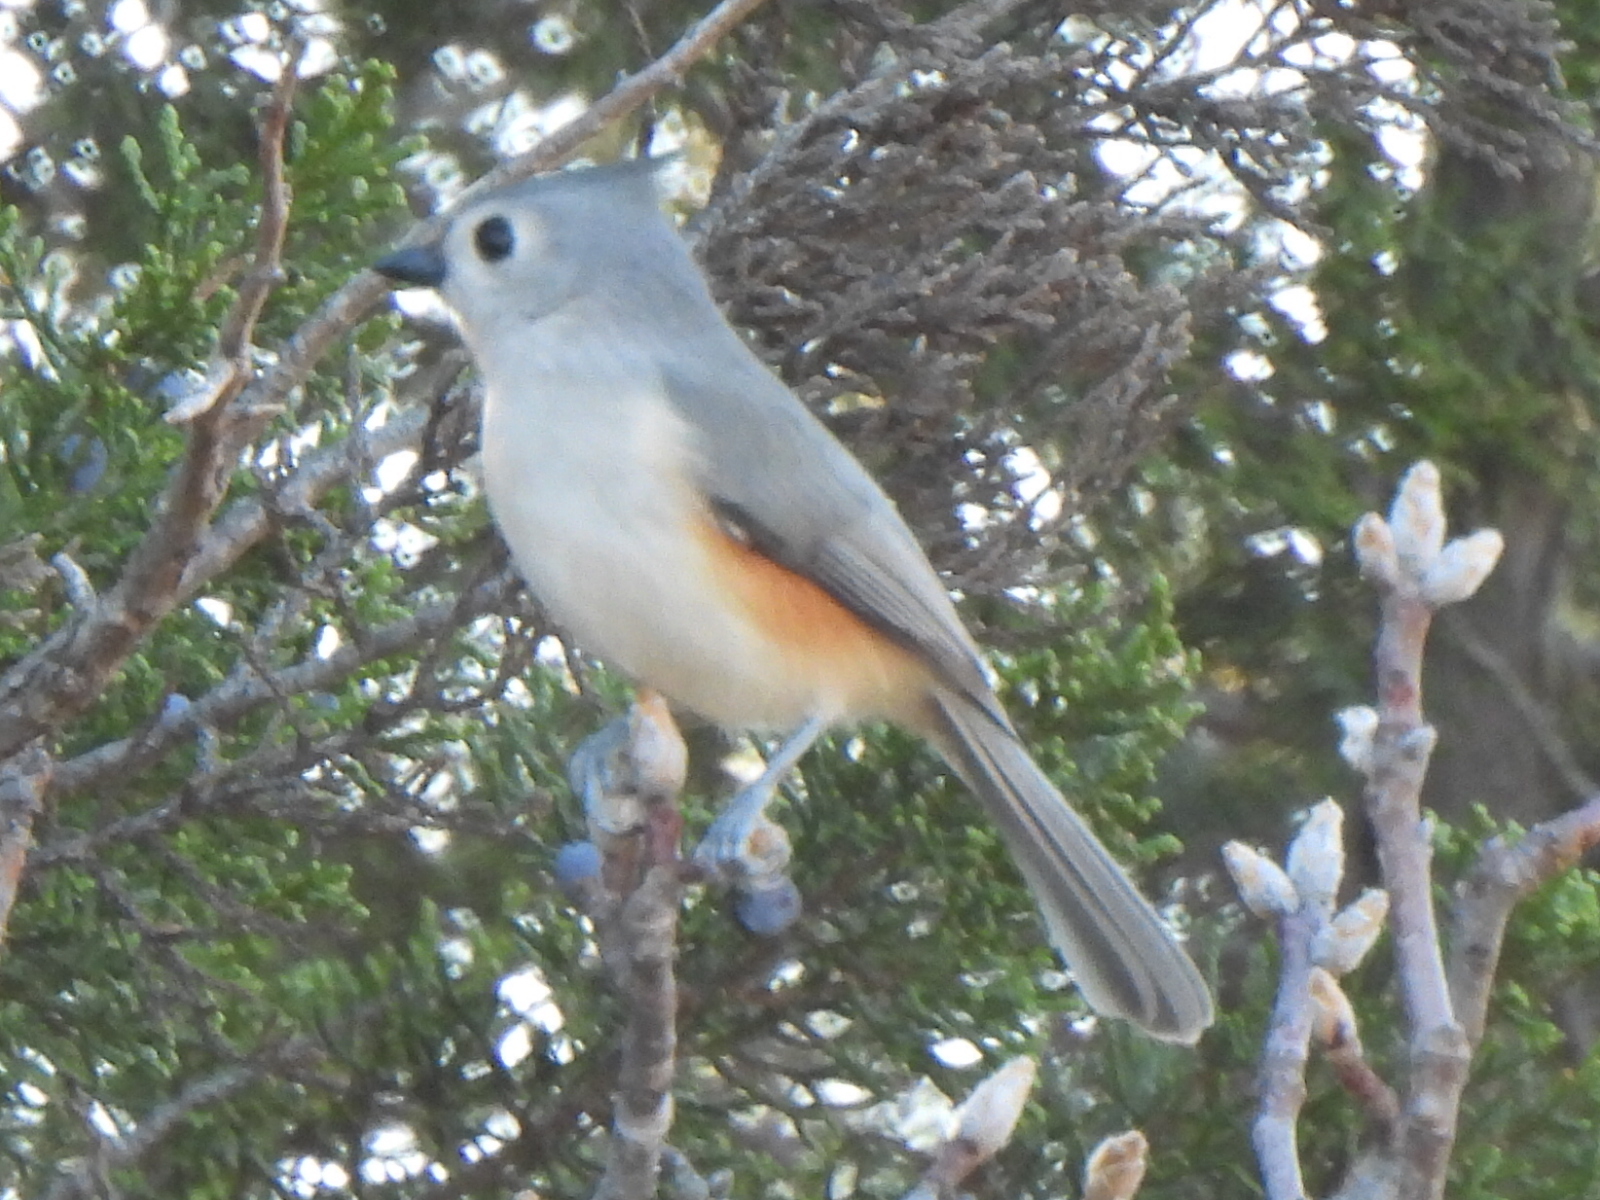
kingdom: Animalia
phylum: Chordata
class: Aves
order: Passeriformes
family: Paridae
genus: Baeolophus
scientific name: Baeolophus bicolor
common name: Tufted titmouse
